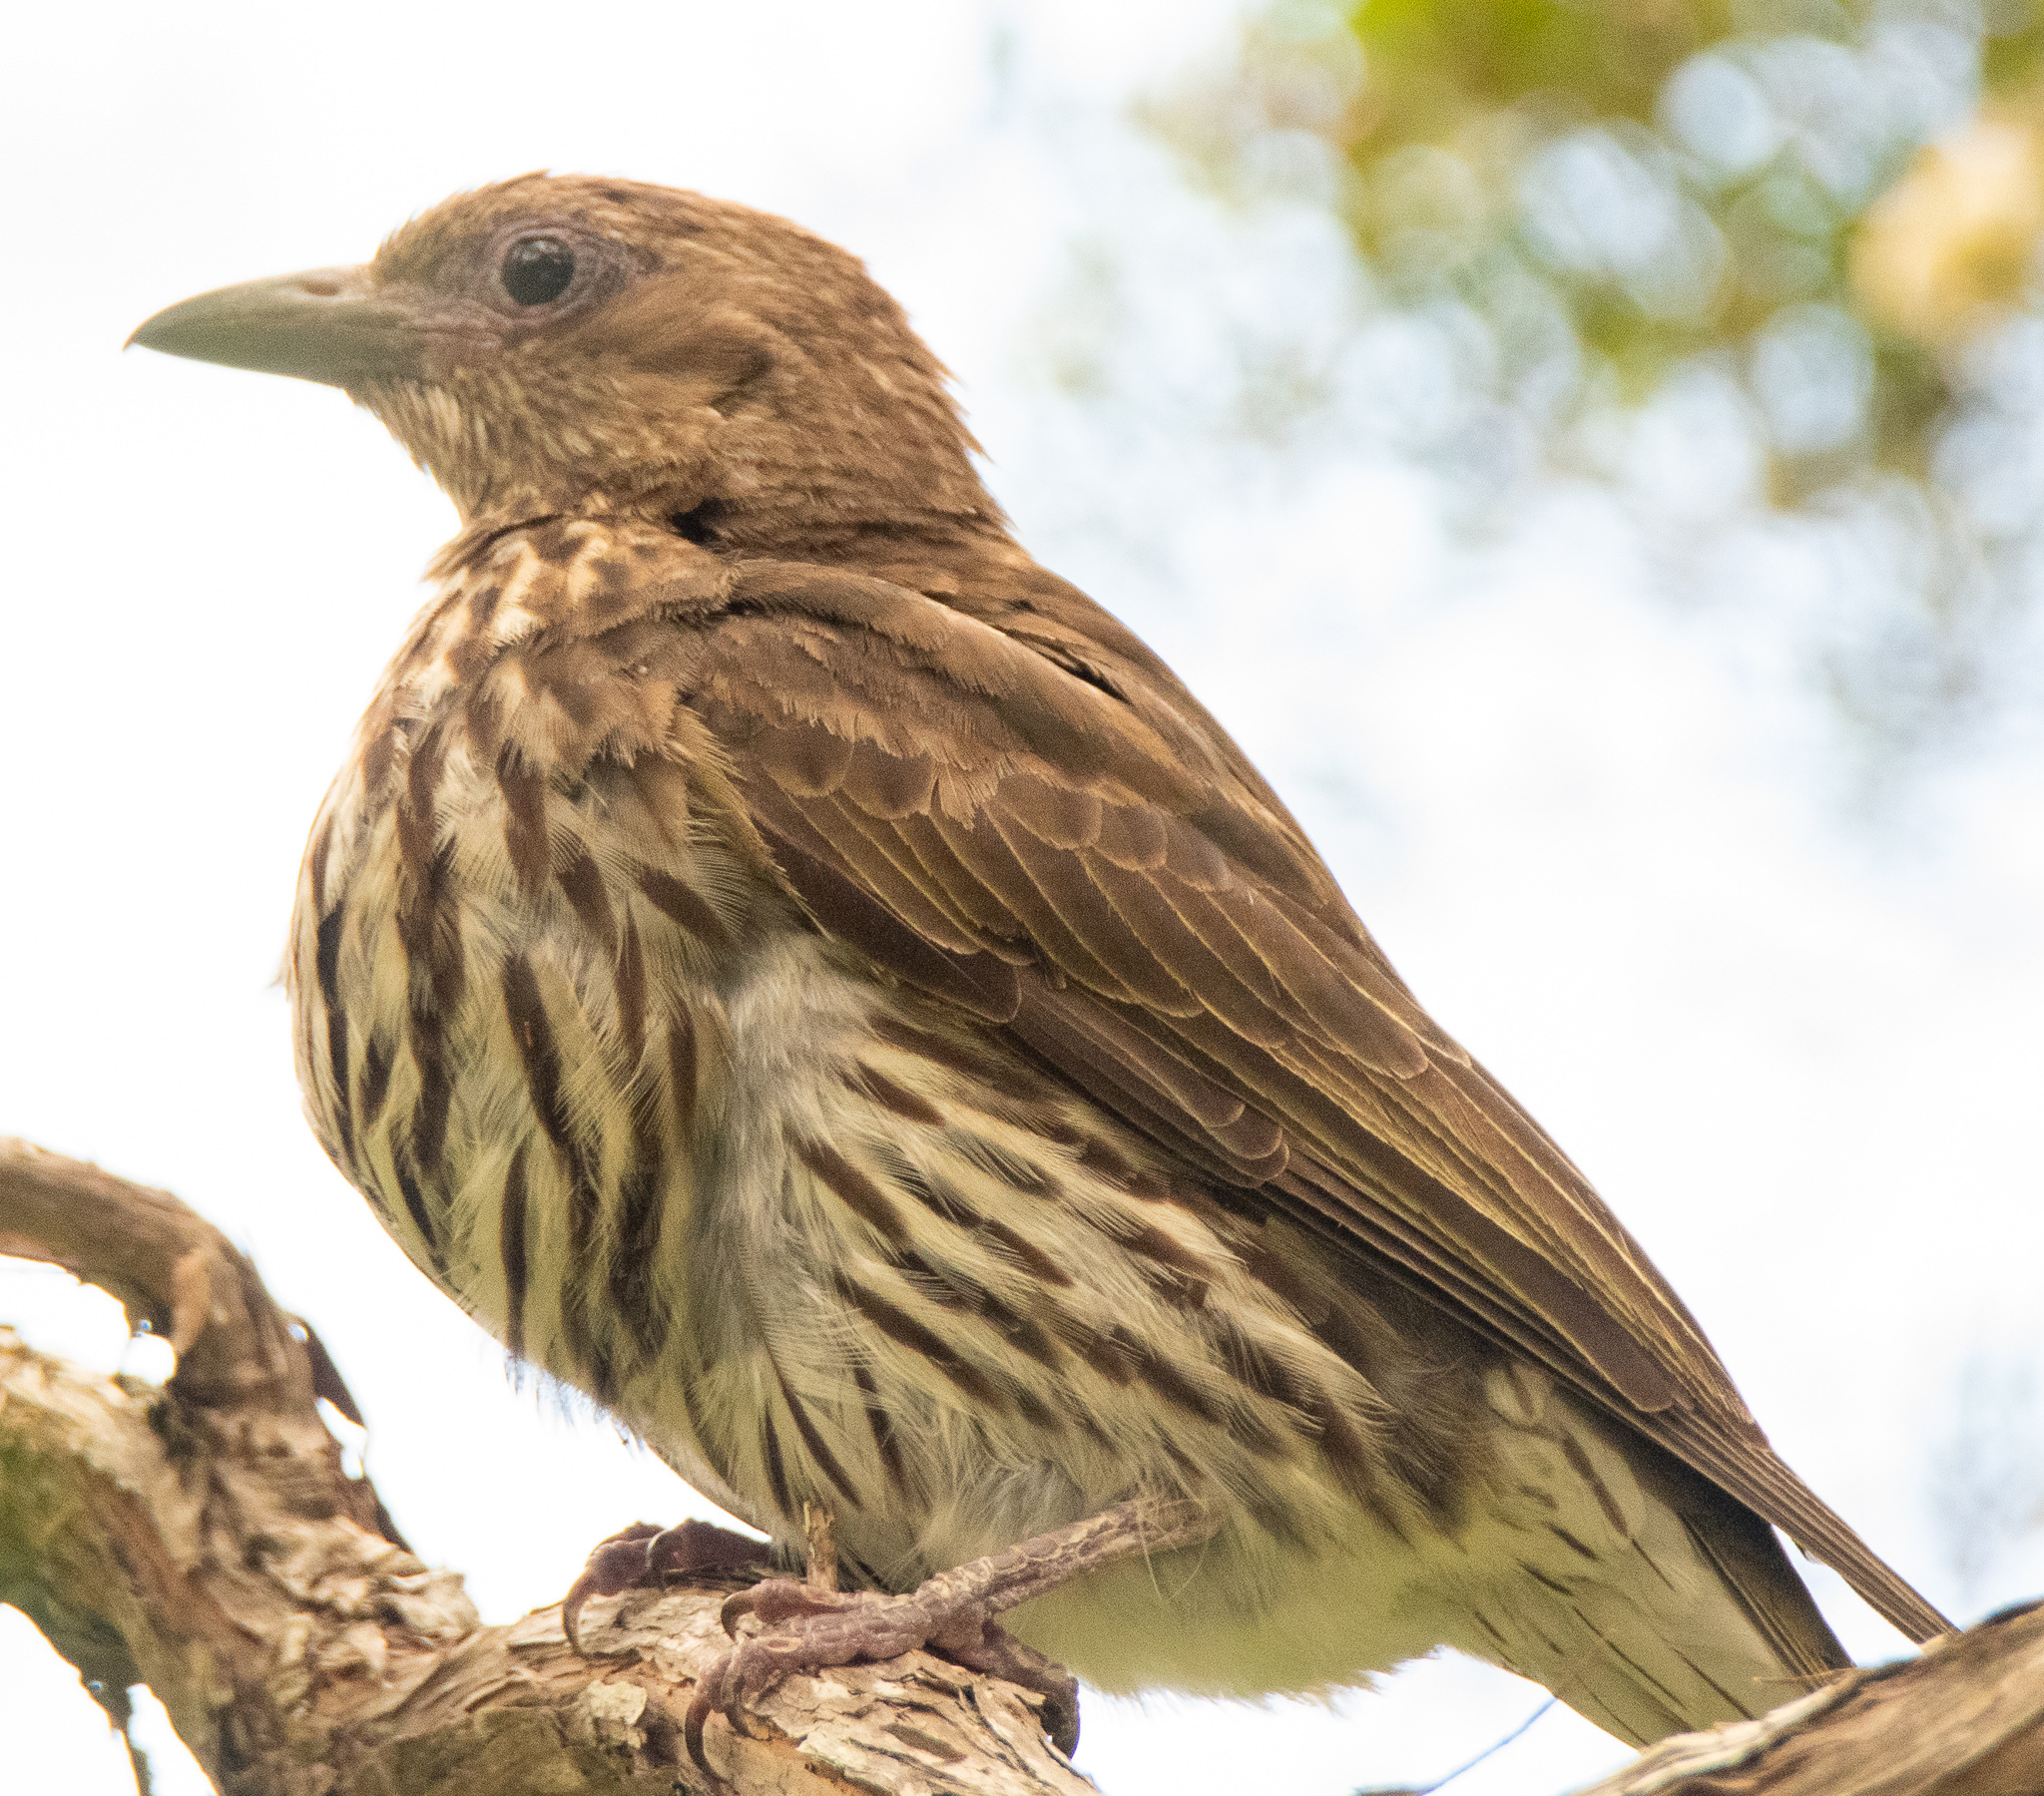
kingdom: Animalia
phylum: Chordata
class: Aves
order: Passeriformes
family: Oriolidae
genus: Sphecotheres
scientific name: Sphecotheres vieilloti
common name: Australasian figbird
